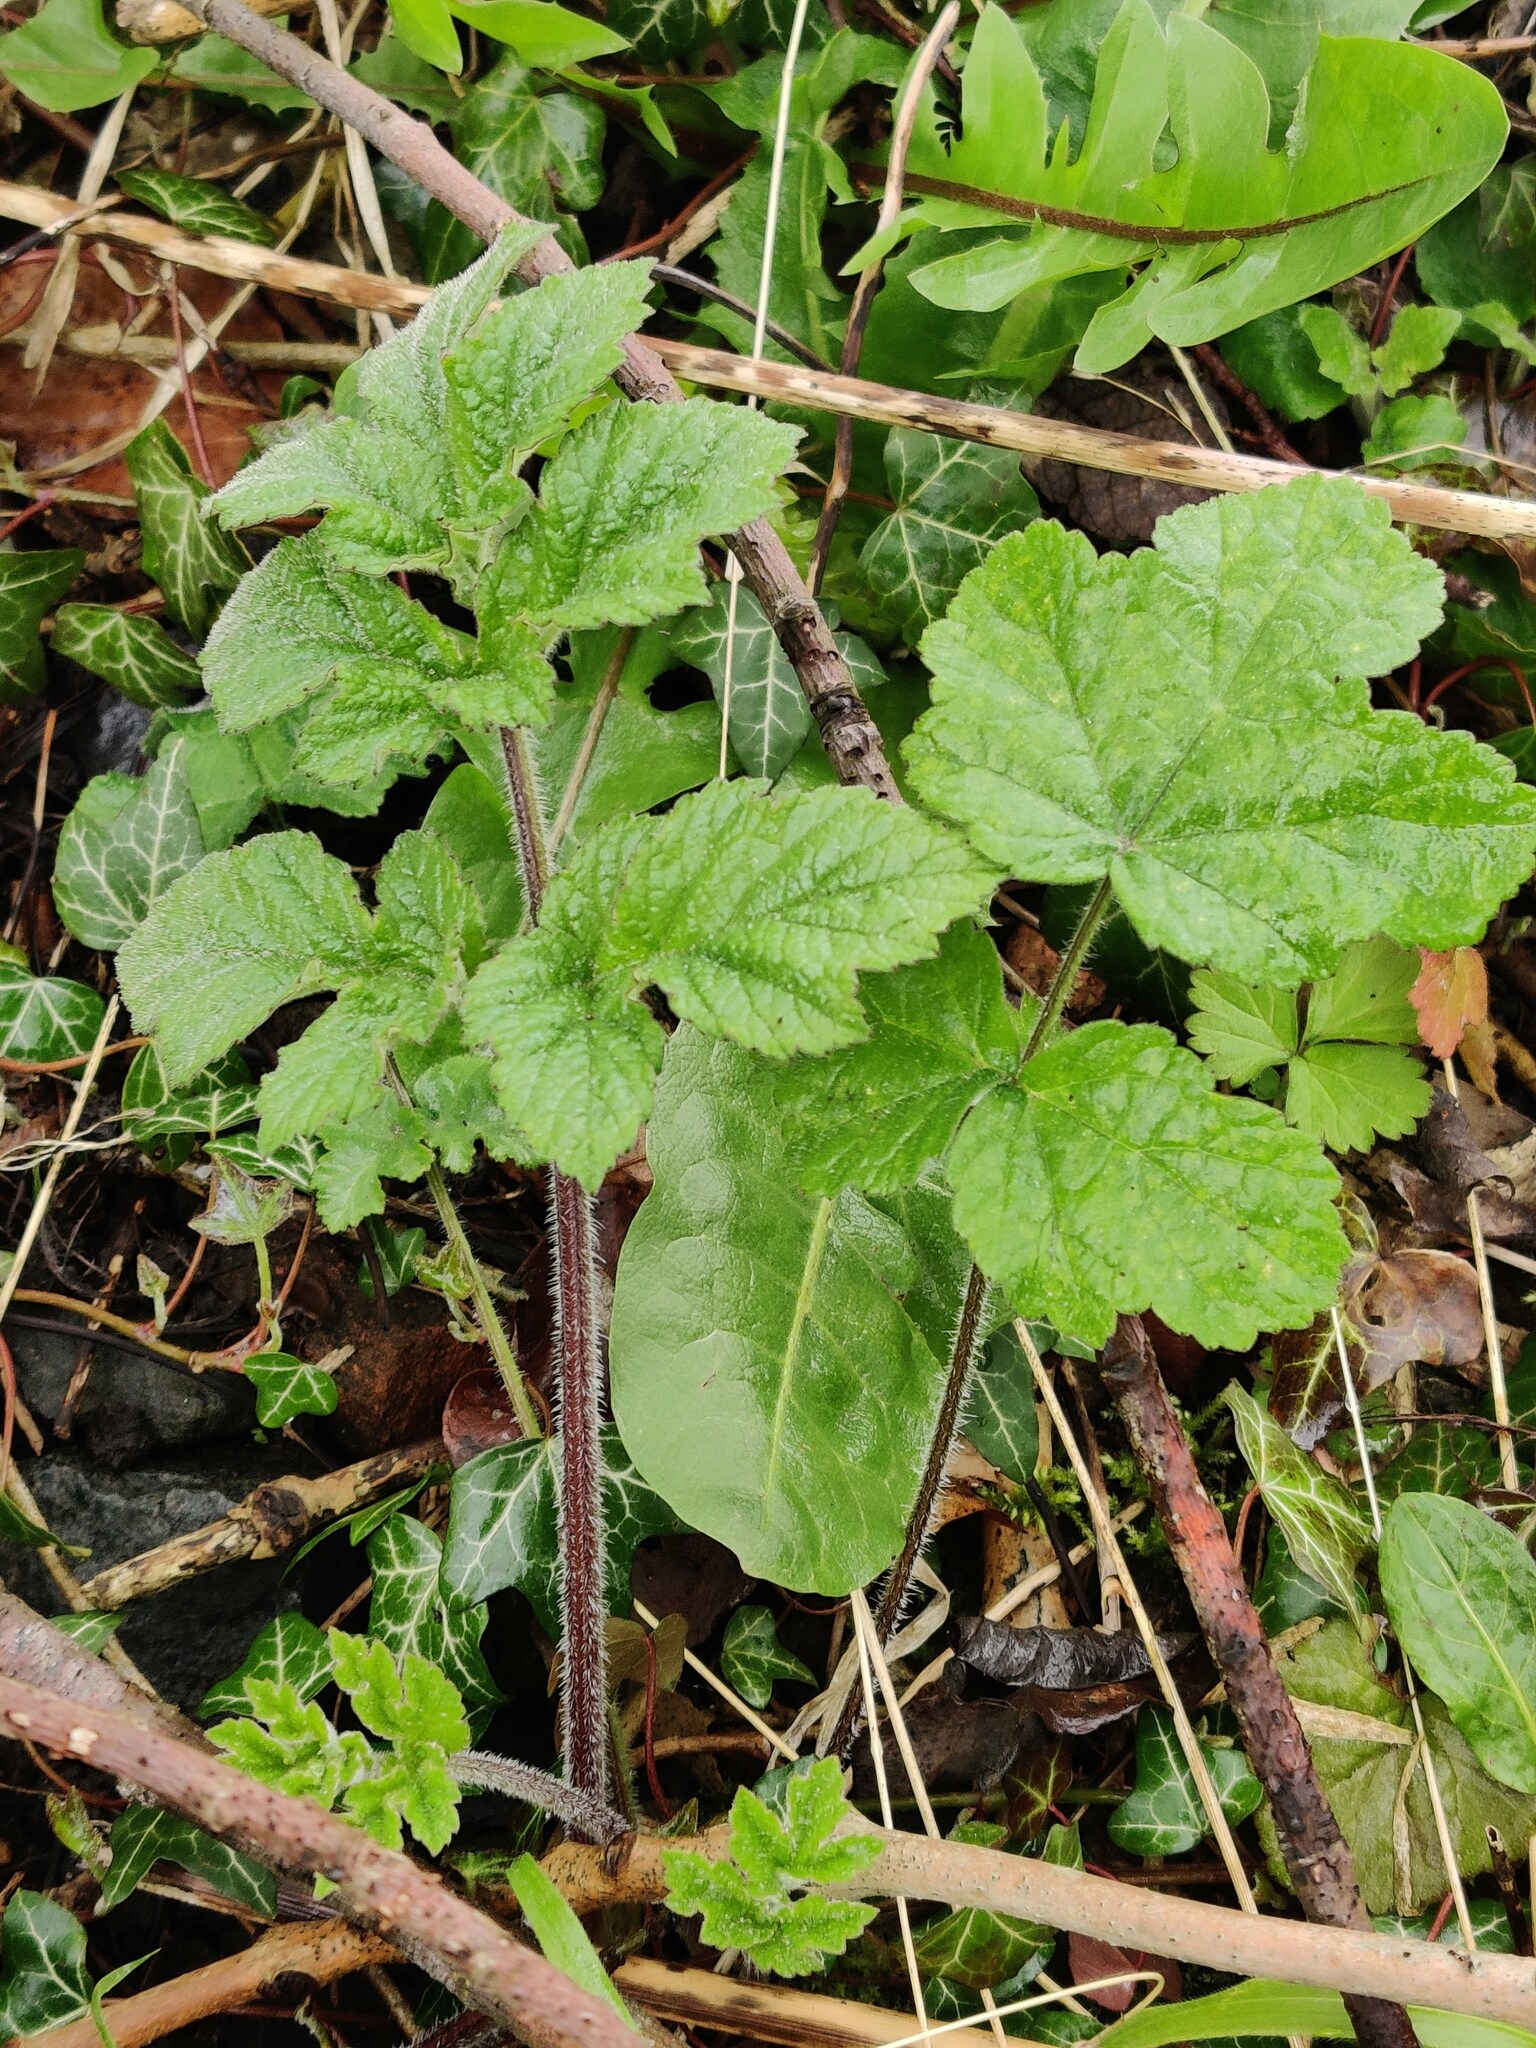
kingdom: Plantae
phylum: Tracheophyta
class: Magnoliopsida
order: Apiales
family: Apiaceae
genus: Heracleum
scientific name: Heracleum sphondylium
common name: Hogweed
